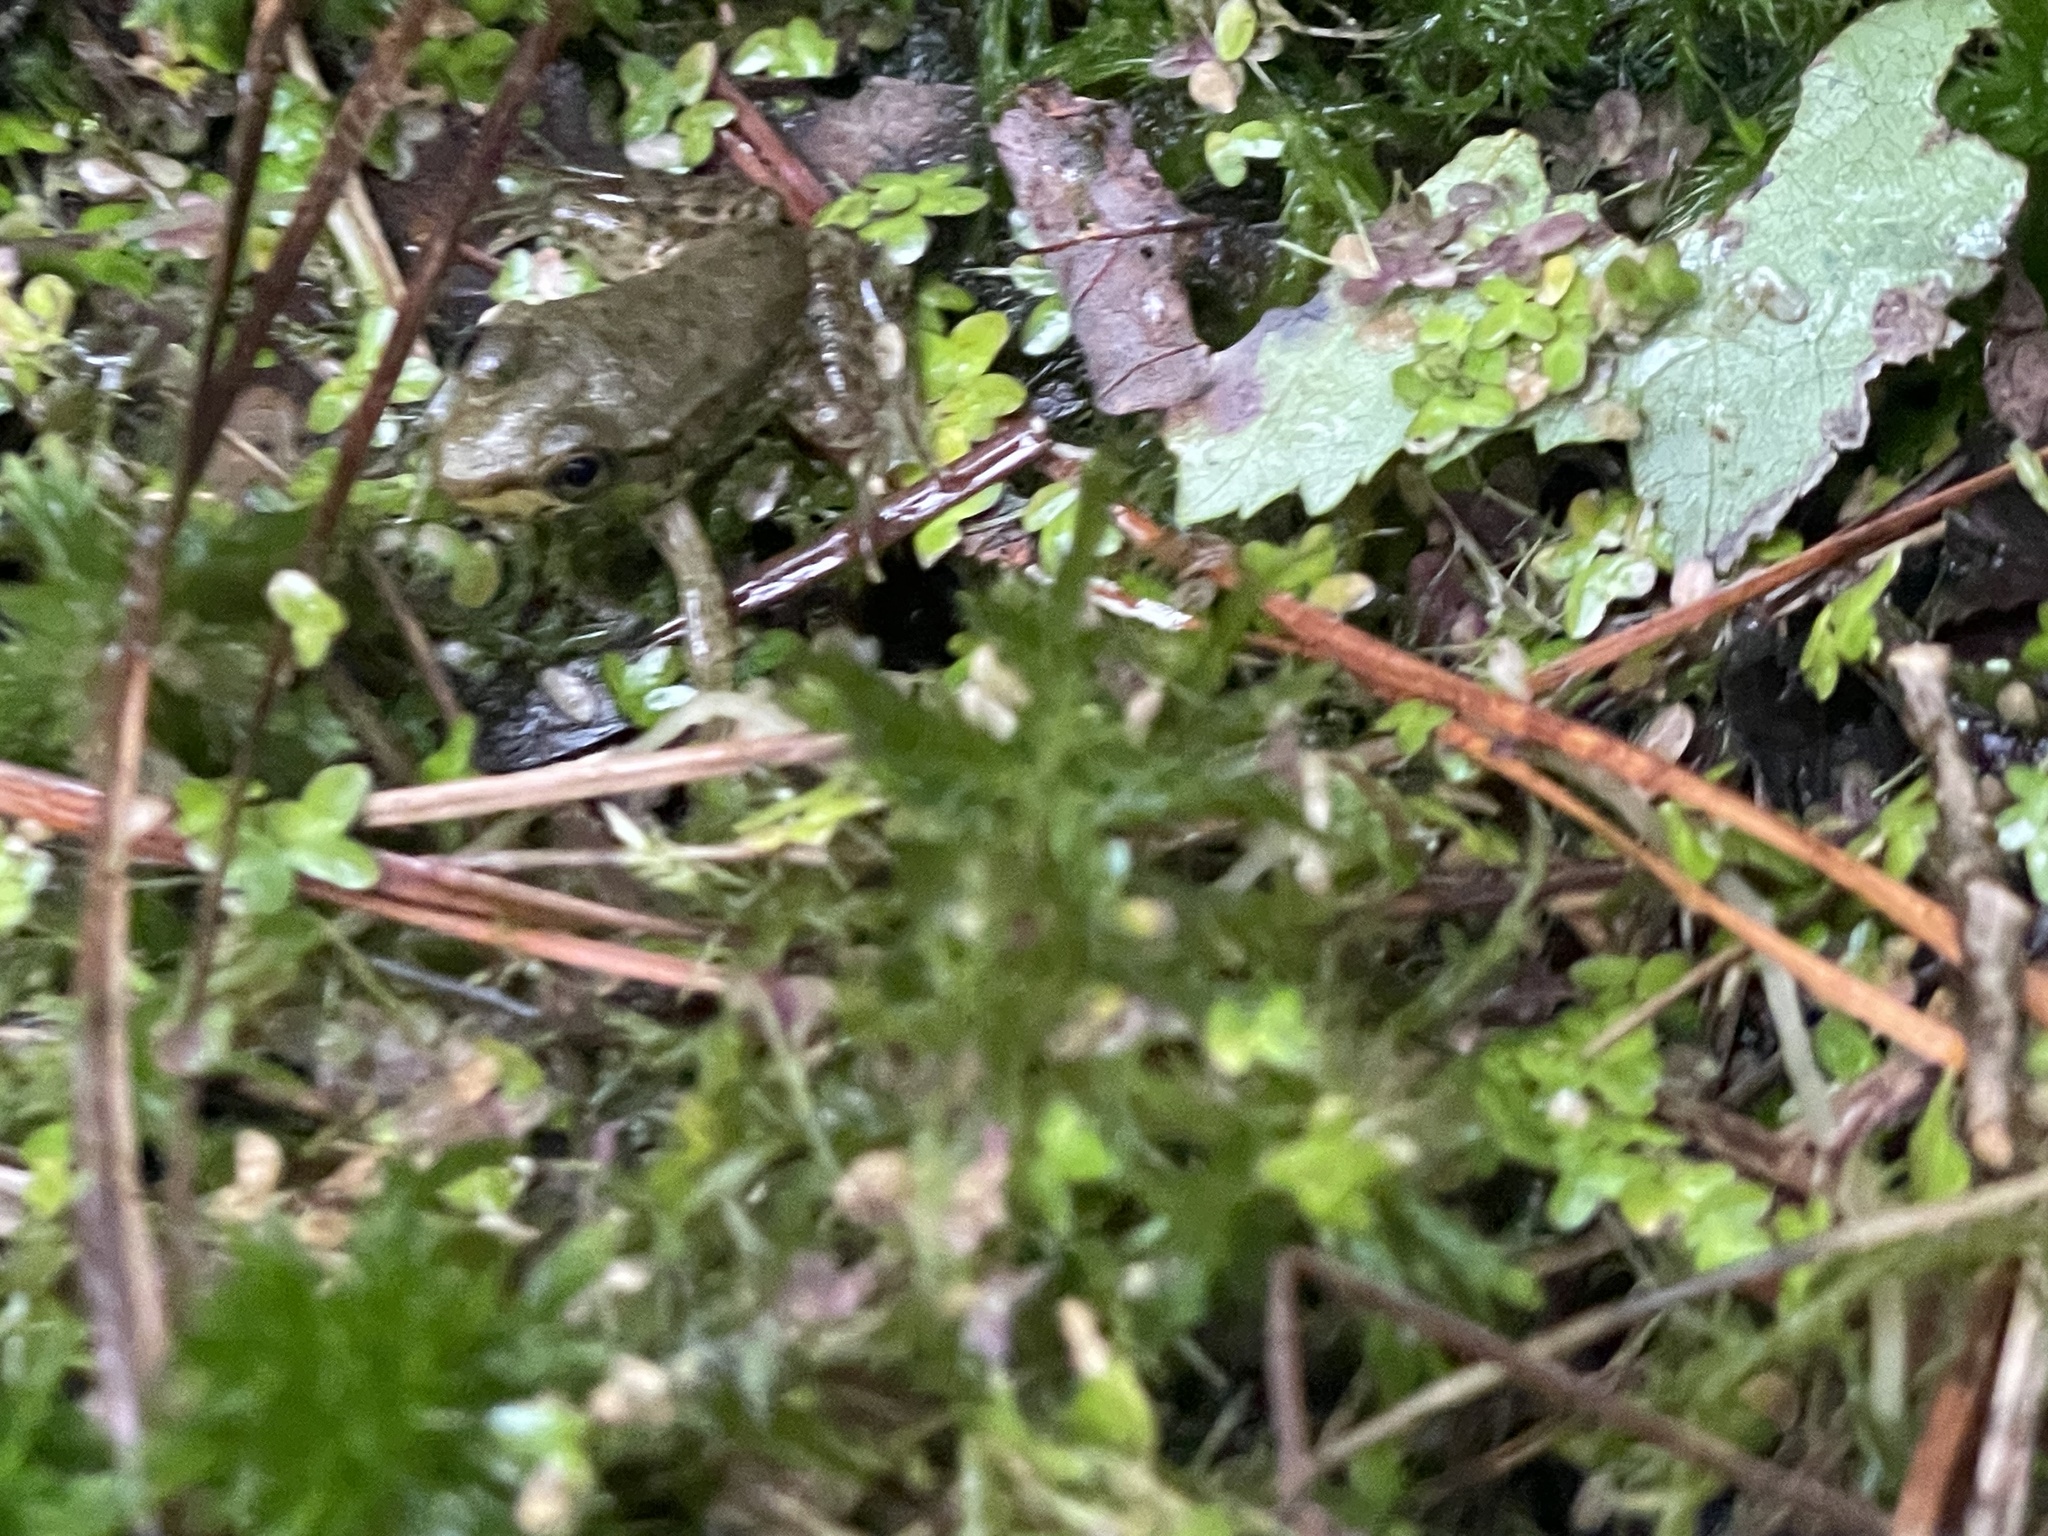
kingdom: Animalia
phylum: Chordata
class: Amphibia
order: Anura
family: Ranidae
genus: Lithobates
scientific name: Lithobates clamitans
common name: Green frog
